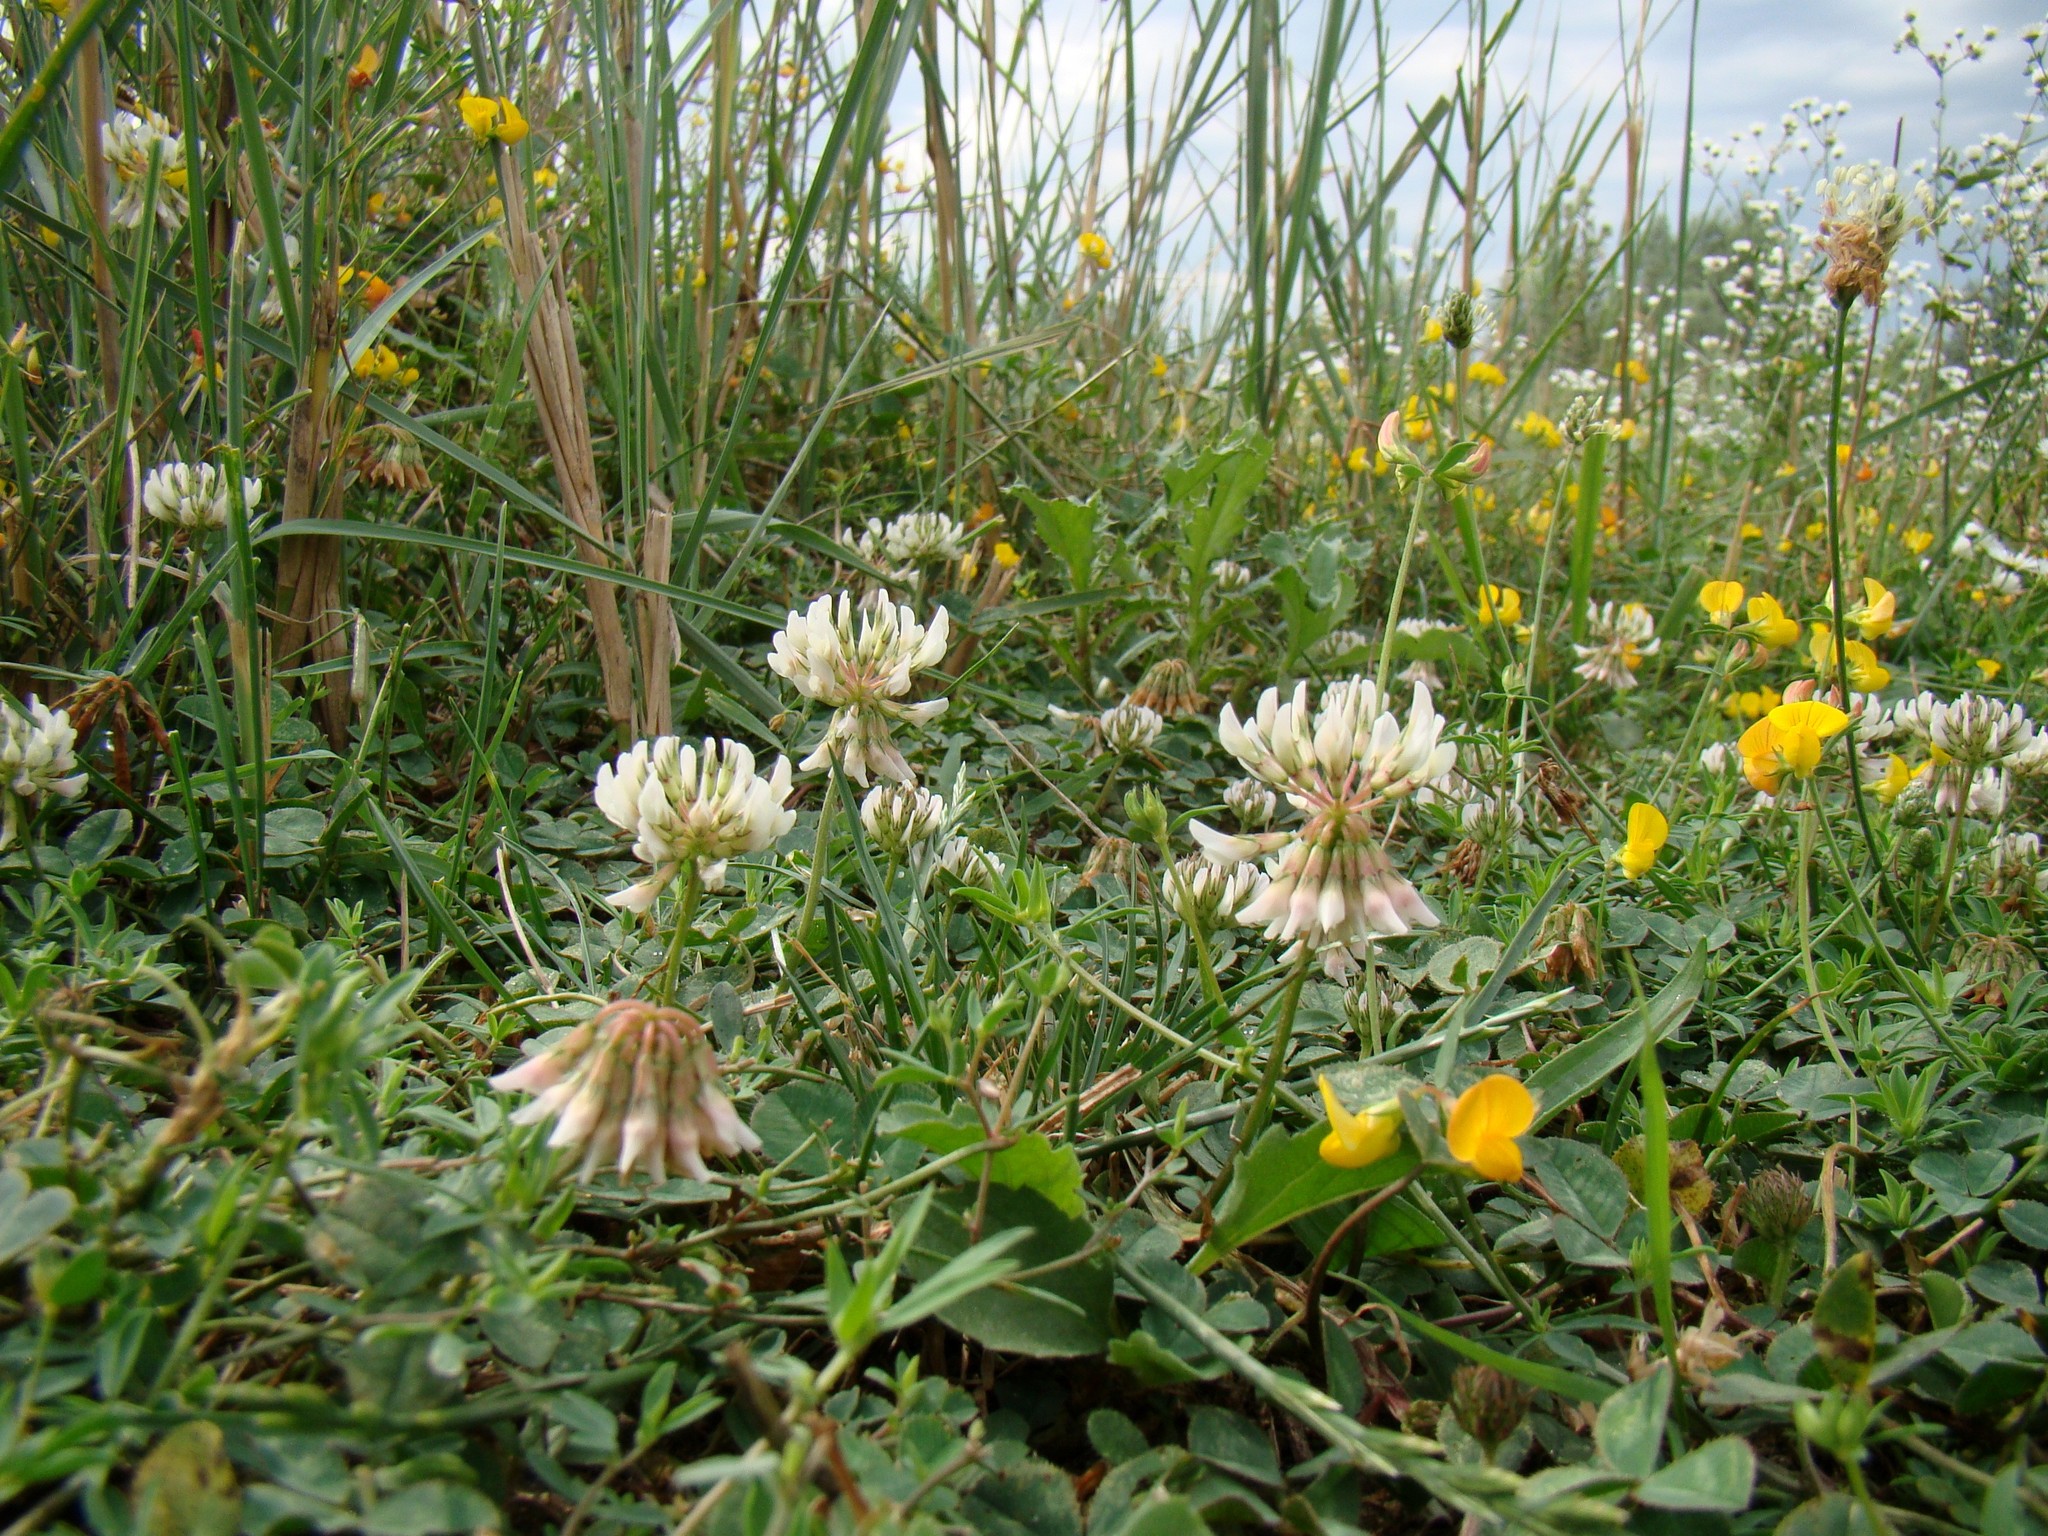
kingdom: Plantae
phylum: Tracheophyta
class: Magnoliopsida
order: Fabales
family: Fabaceae
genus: Trifolium
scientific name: Trifolium repens
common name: White clover
